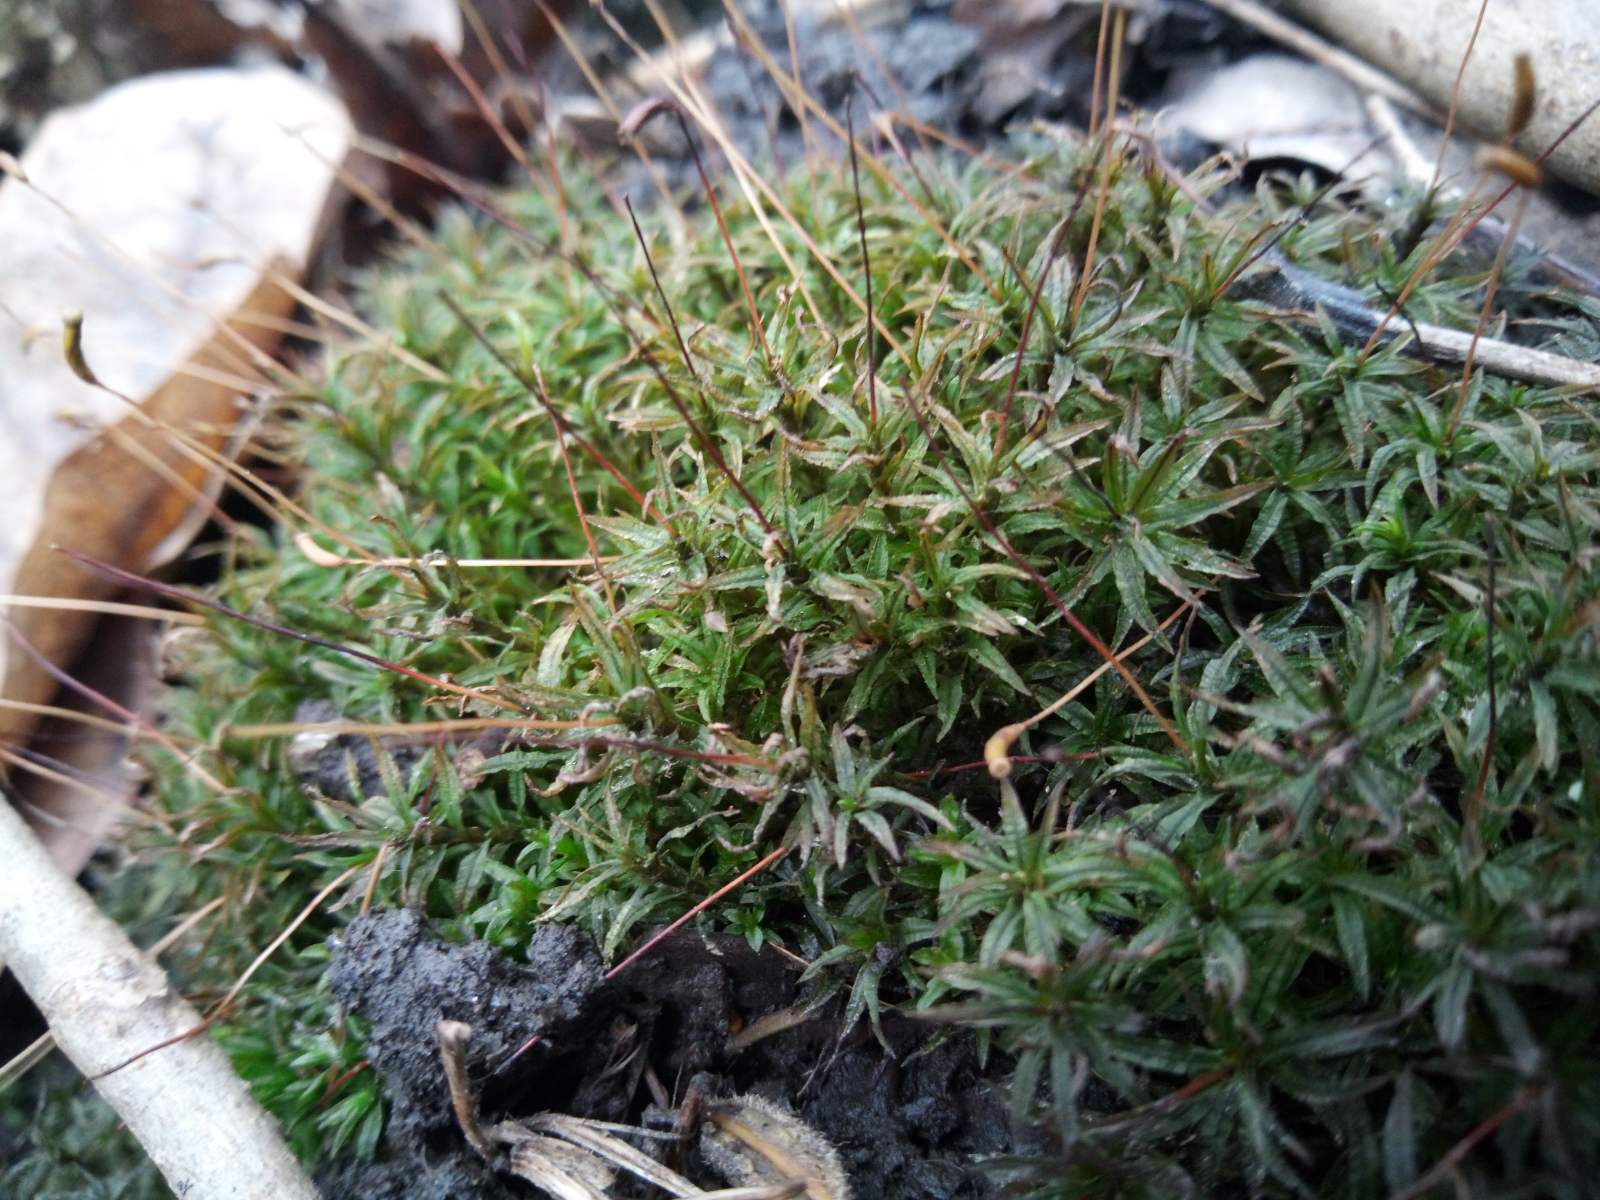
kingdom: Plantae
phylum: Bryophyta
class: Polytrichopsida
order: Polytrichales
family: Polytrichaceae
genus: Atrichum
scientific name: Atrichum undulatum
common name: Common smoothcap
